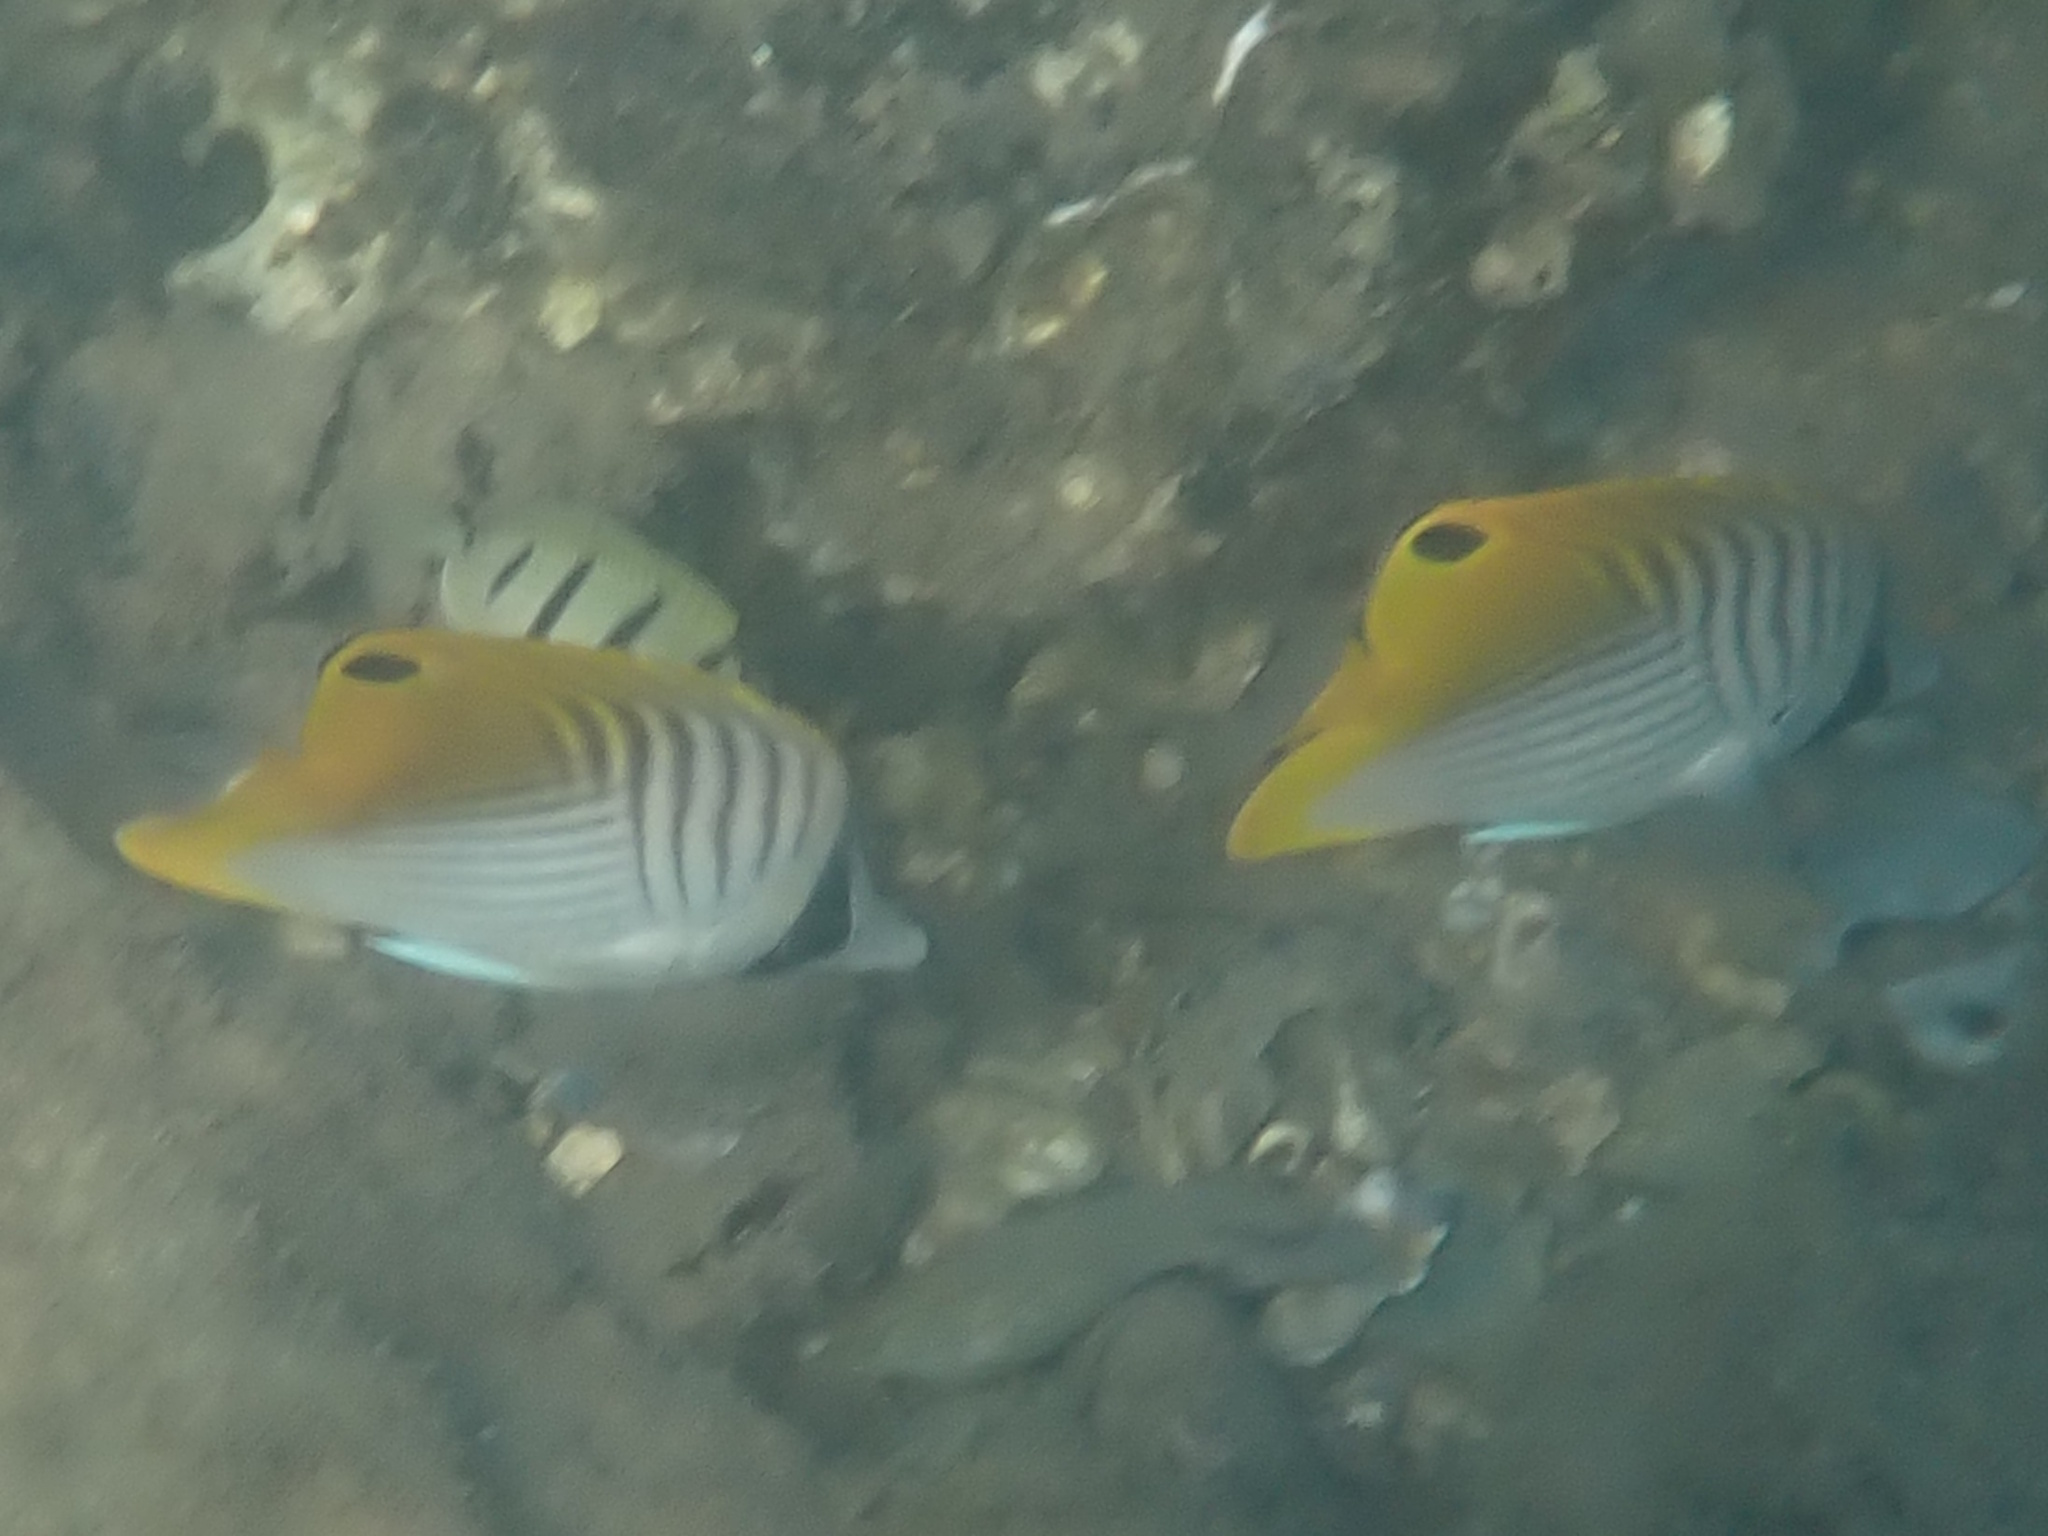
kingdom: Animalia
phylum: Chordata
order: Perciformes
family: Chaetodontidae
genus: Chaetodon
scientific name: Chaetodon auriga
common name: Threadfin butterflyfish
